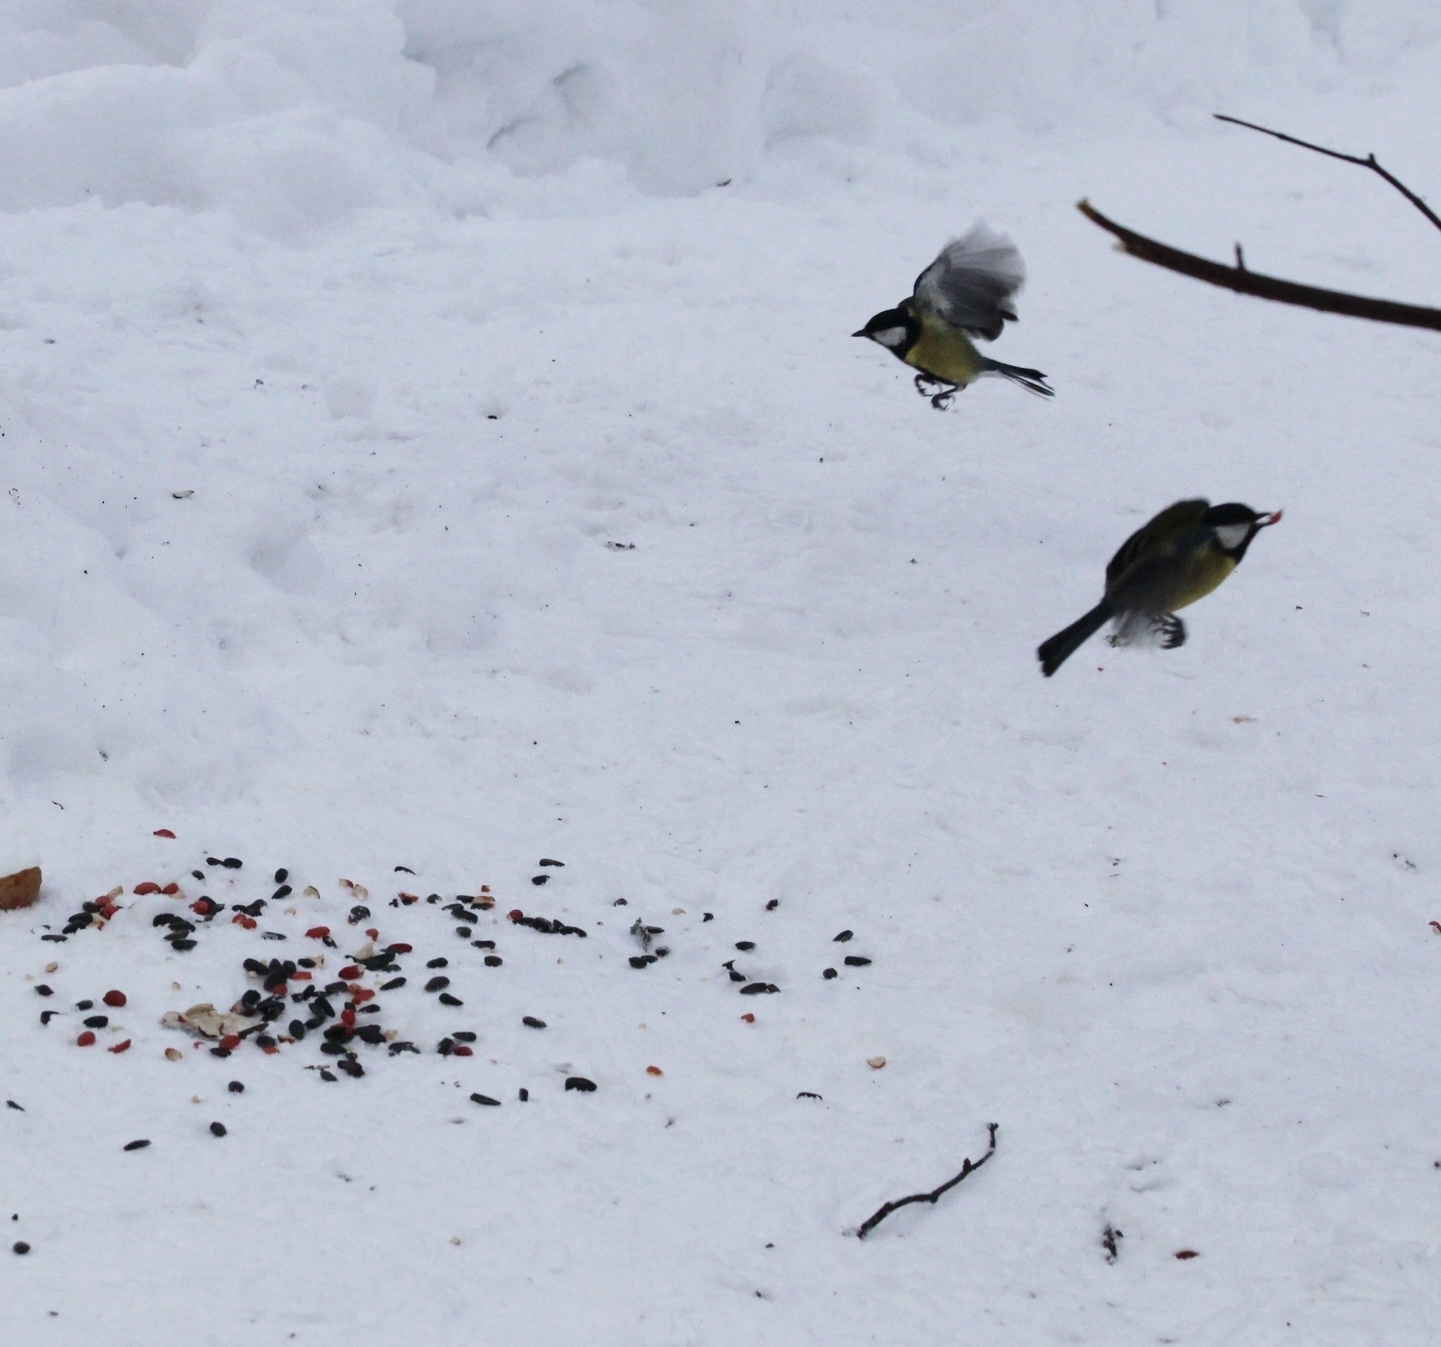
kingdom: Animalia
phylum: Chordata
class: Aves
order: Passeriformes
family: Paridae
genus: Parus
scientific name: Parus major
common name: Great tit
